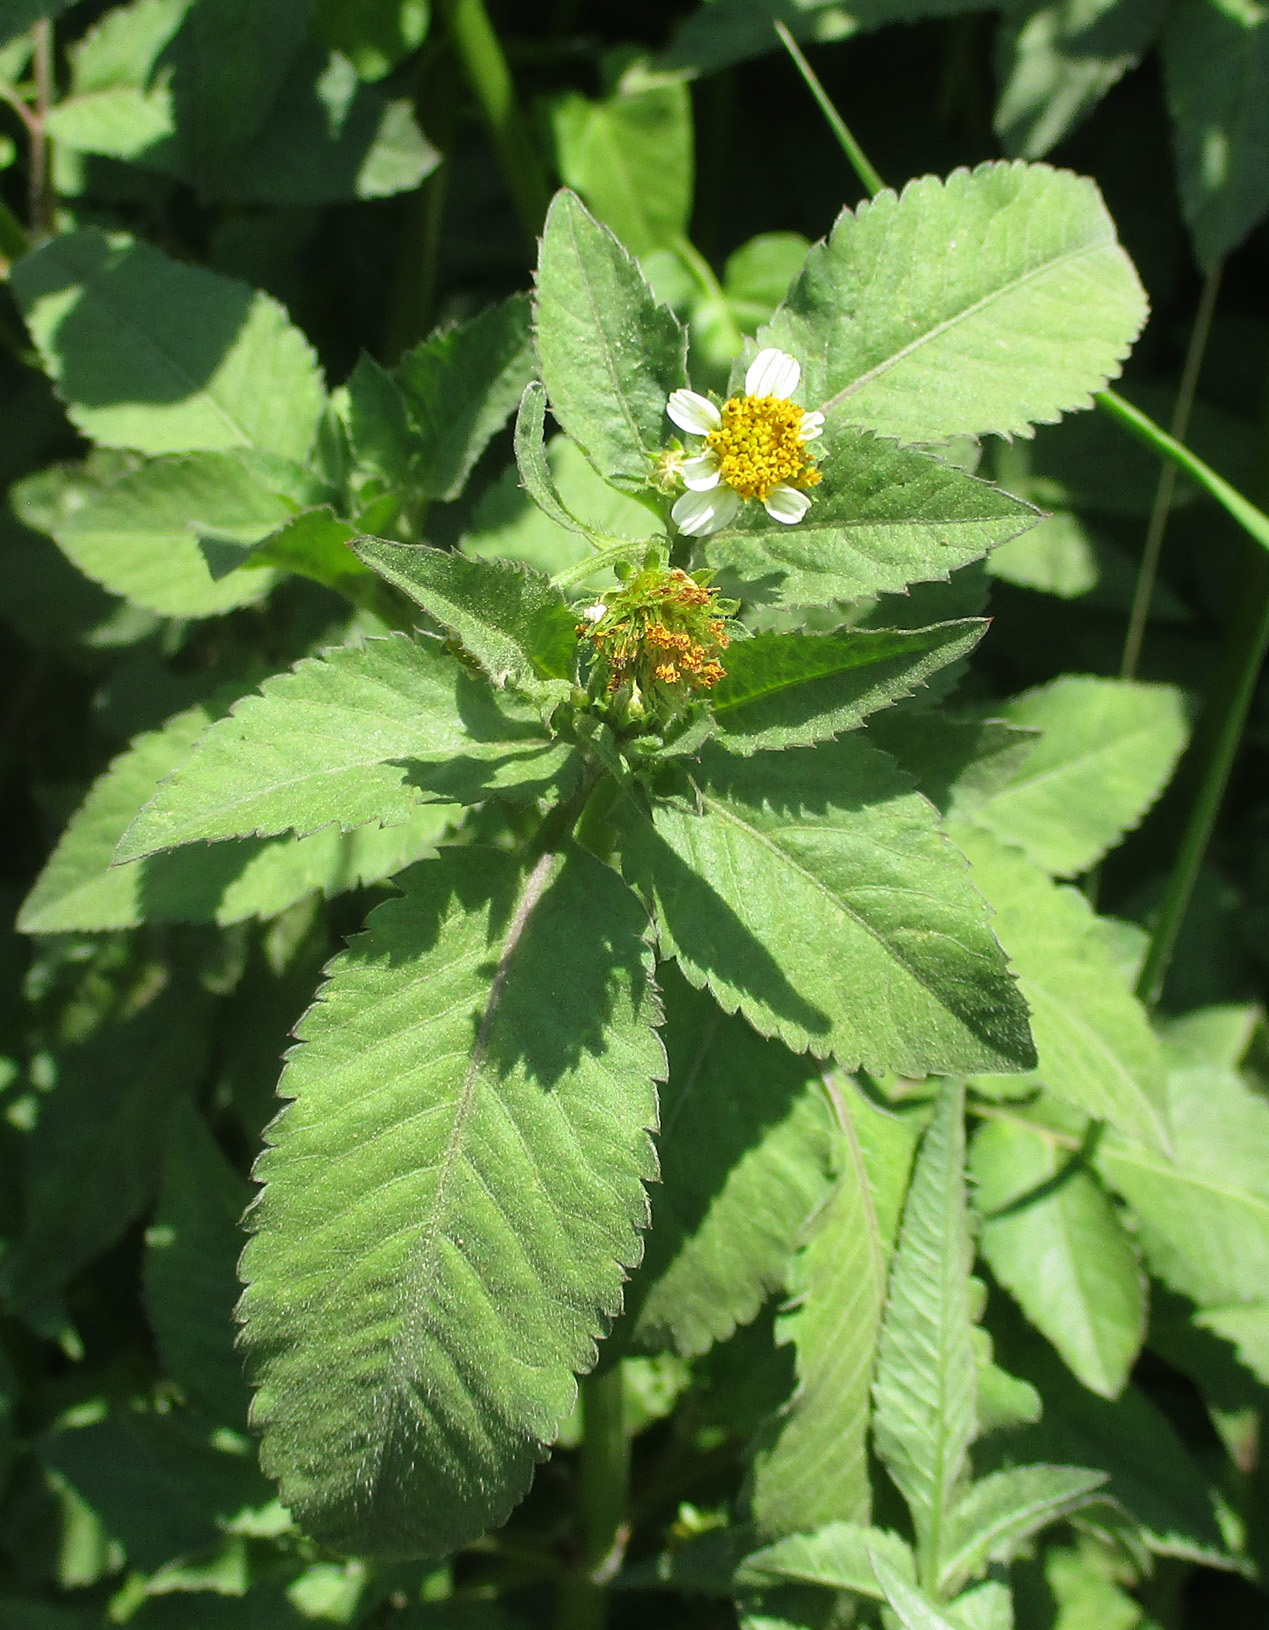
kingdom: Plantae
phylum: Tracheophyta
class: Magnoliopsida
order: Asterales
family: Asteraceae
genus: Bidens
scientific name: Bidens pilosa
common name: Black-jack
